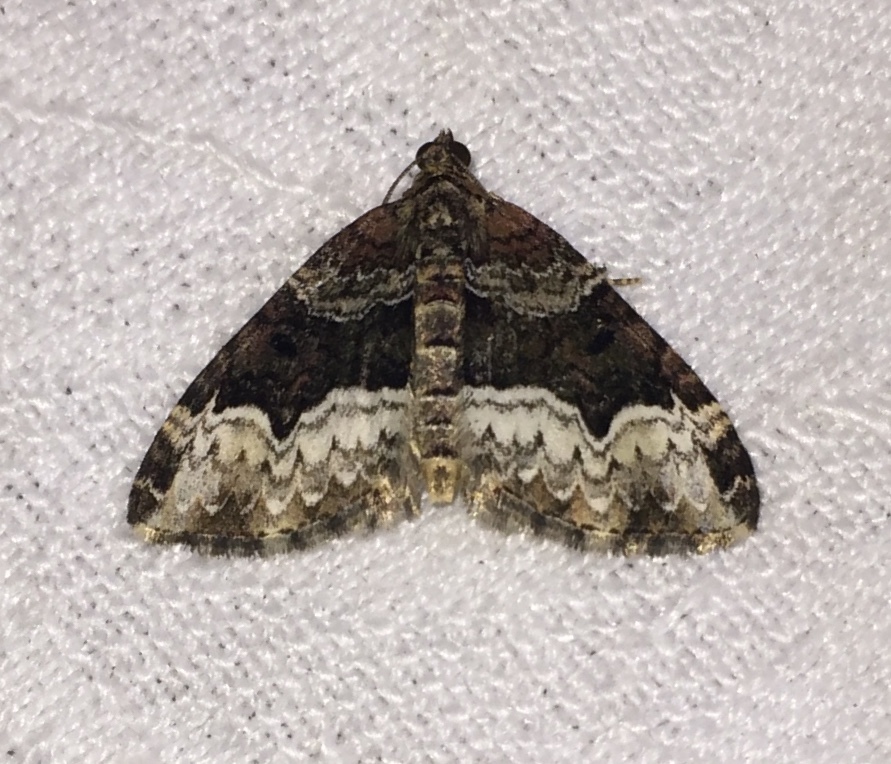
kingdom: Animalia
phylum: Arthropoda
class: Insecta
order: Lepidoptera
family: Geometridae
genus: Euphyia
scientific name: Euphyia intermediata
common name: Sharp-angled carpet
